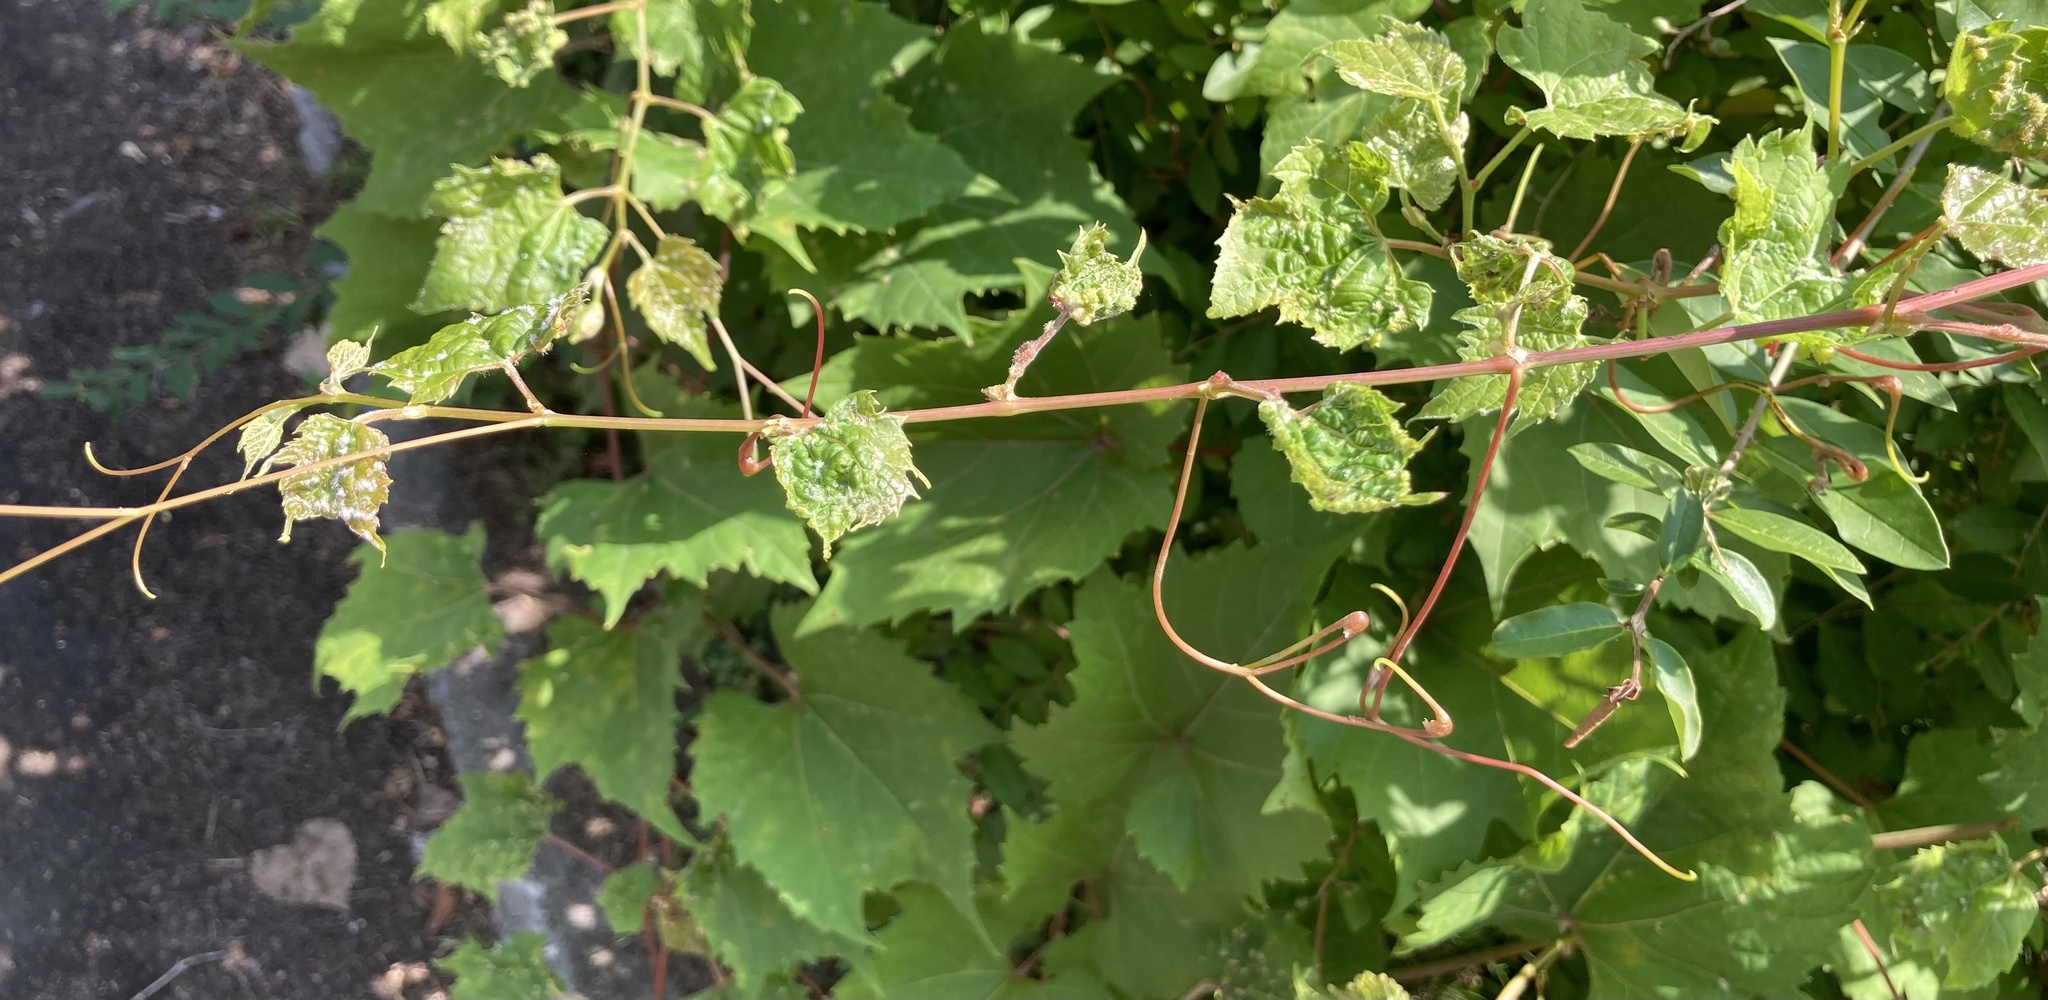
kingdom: Animalia
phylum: Arthropoda
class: Insecta
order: Hemiptera
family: Phylloxeridae
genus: Daktulosphaira
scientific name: Daktulosphaira vitifoliae
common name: Grape phylloxera
